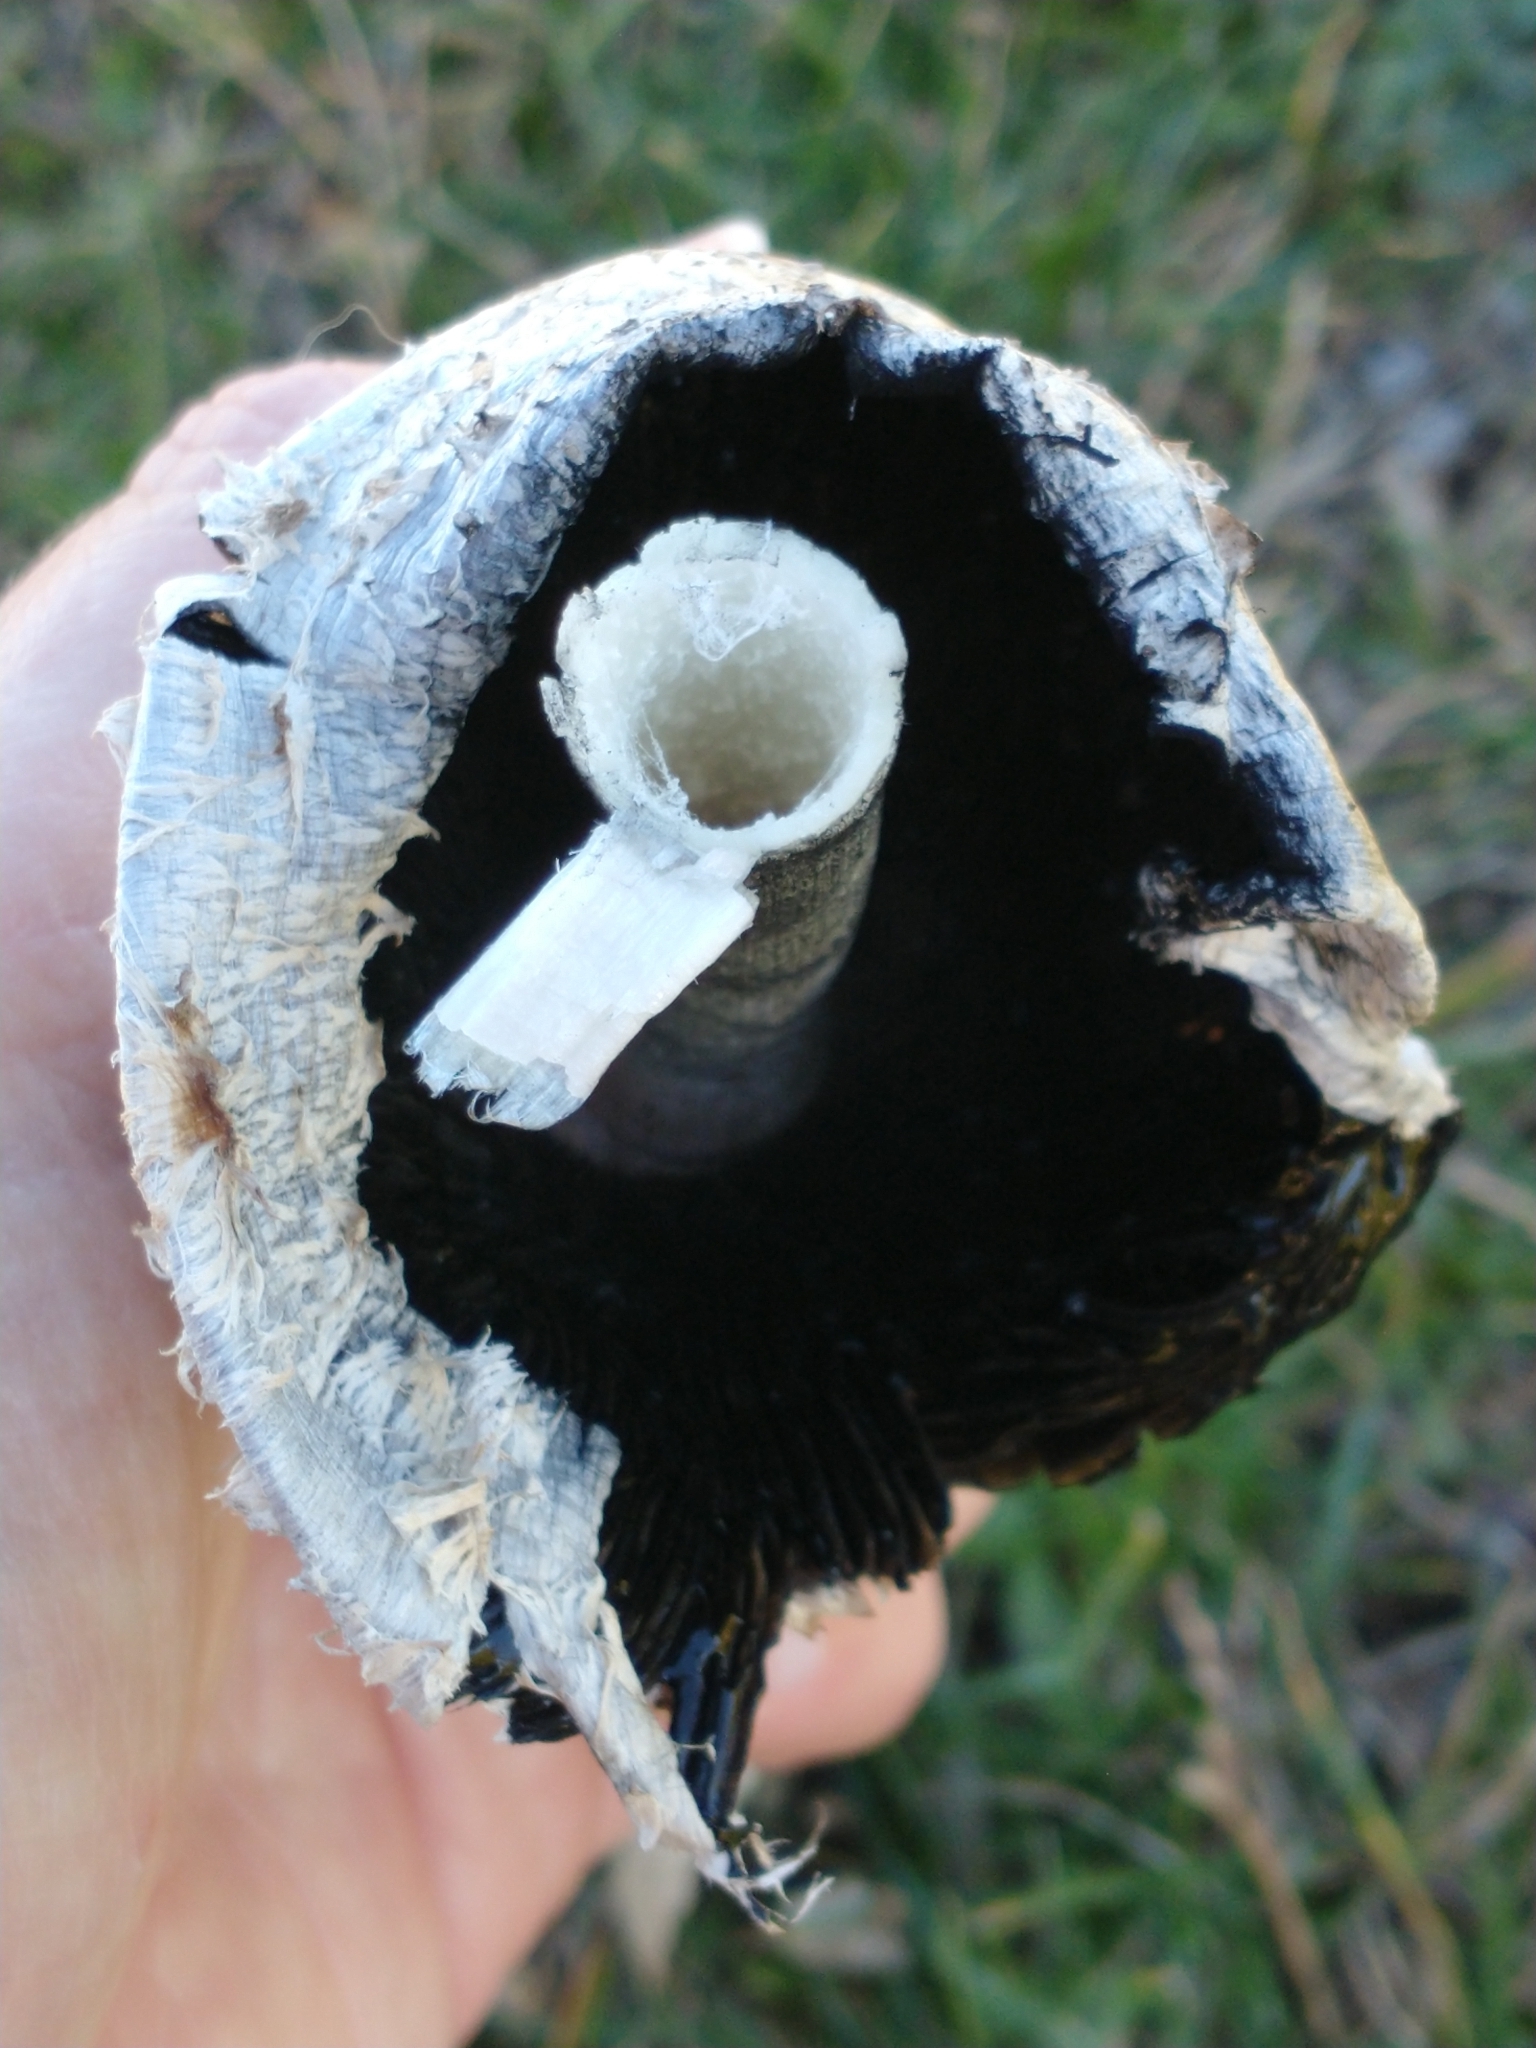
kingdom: Fungi
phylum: Basidiomycota
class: Agaricomycetes
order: Agaricales
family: Agaricaceae
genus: Coprinus
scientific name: Coprinus comatus
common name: Lawyer's wig
